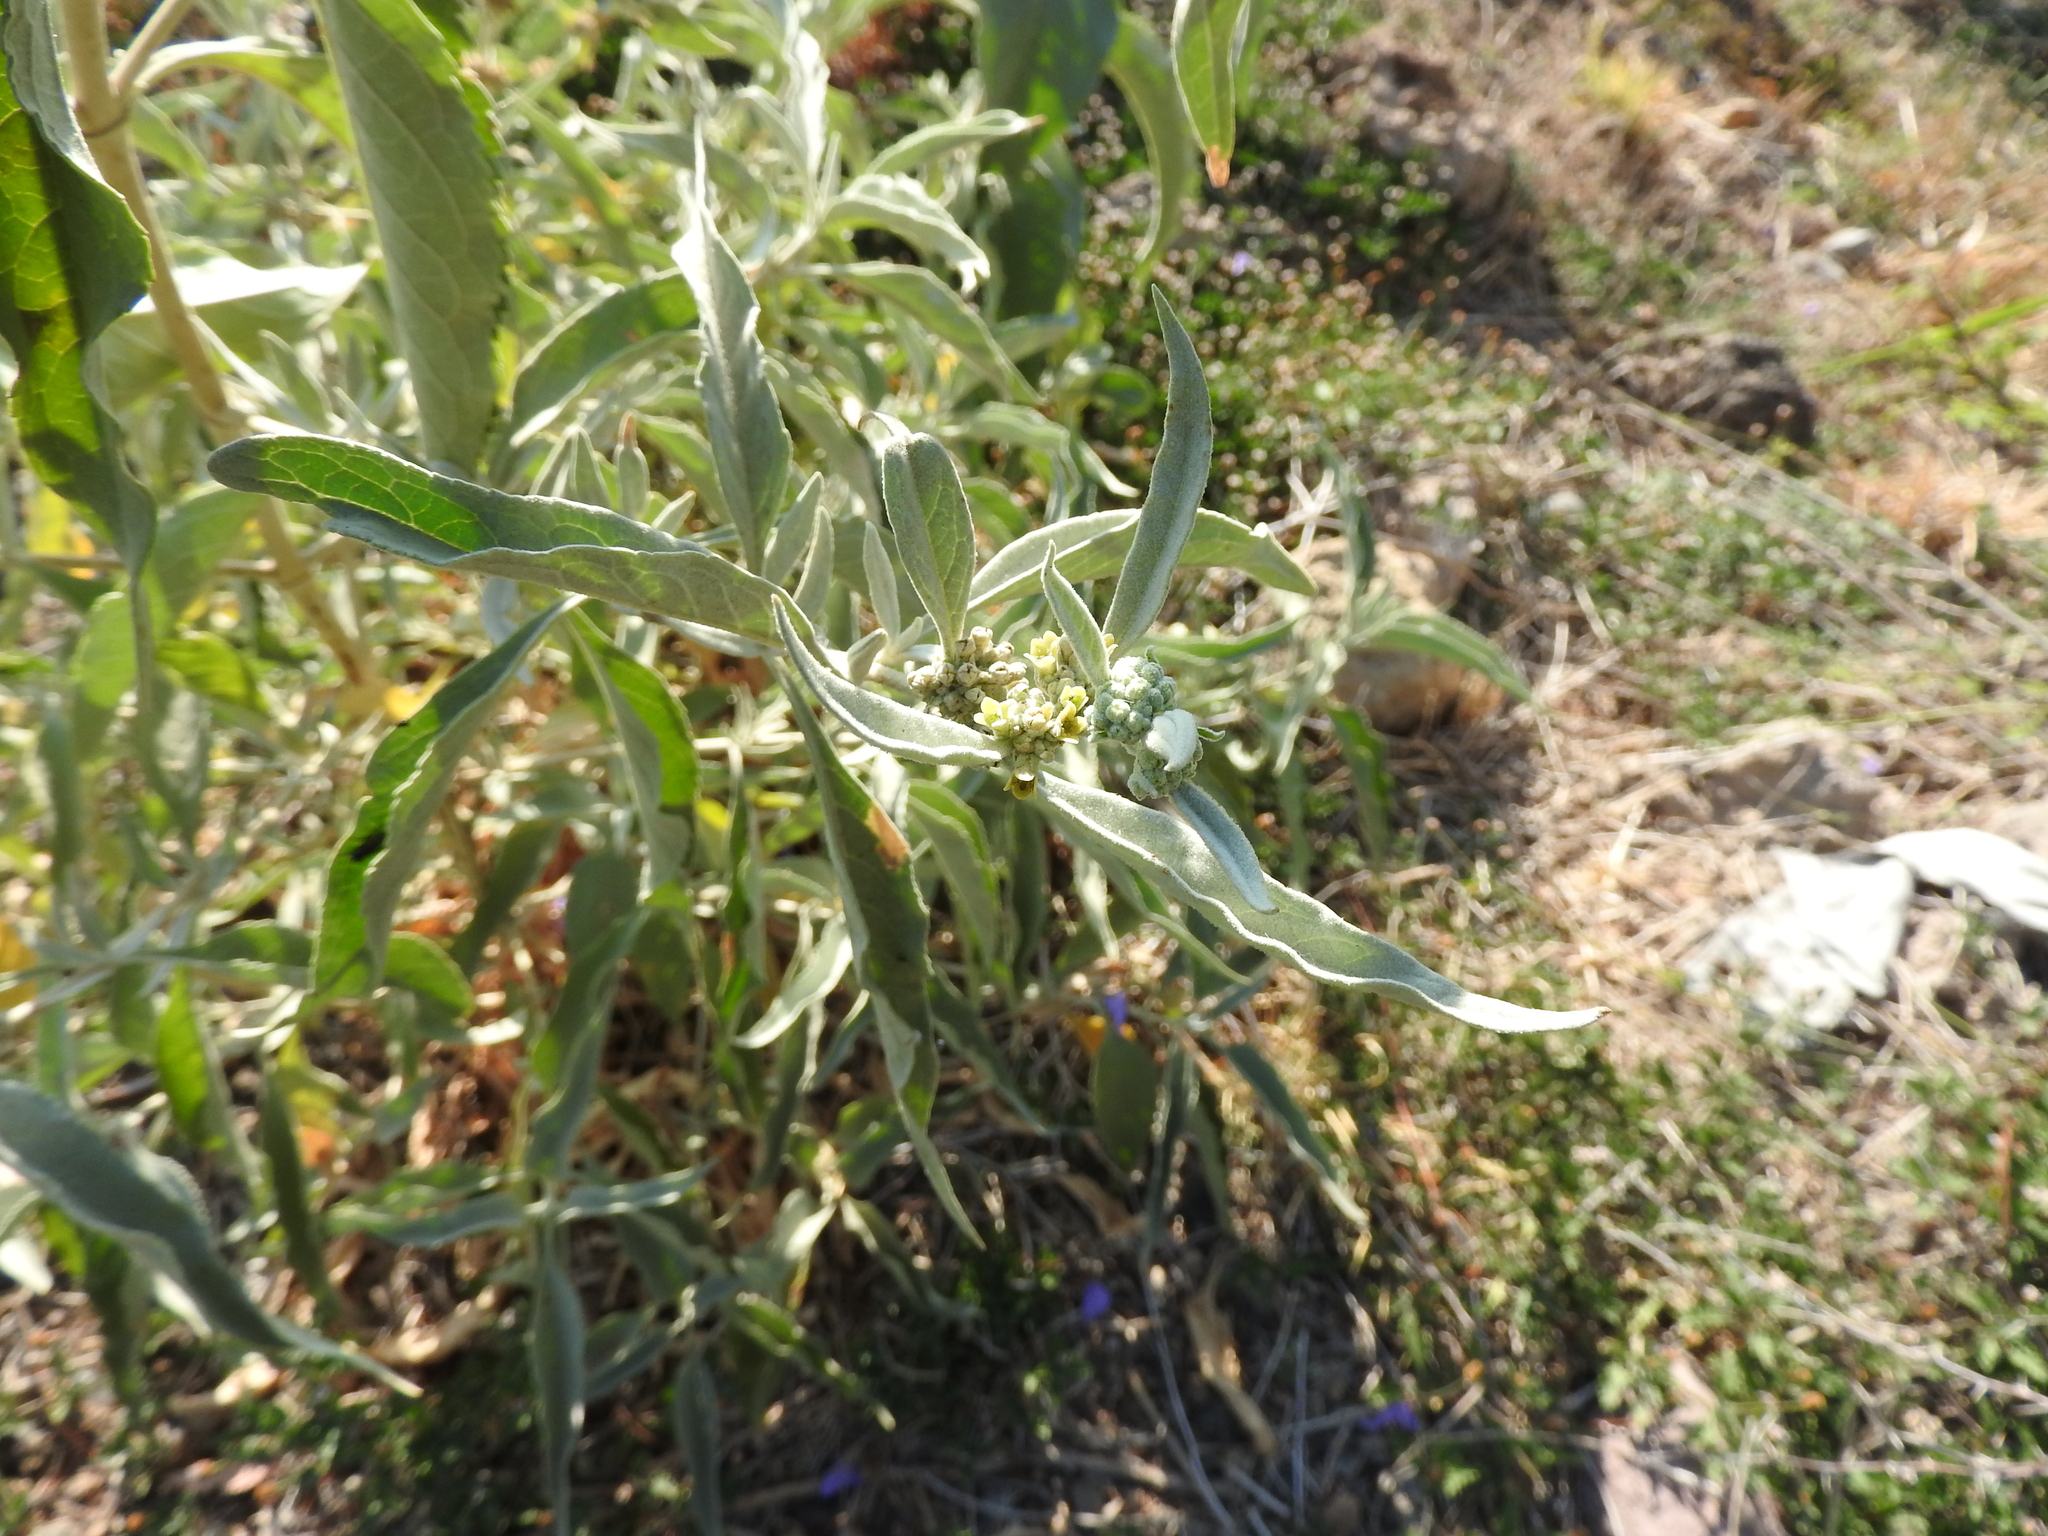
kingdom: Plantae
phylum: Tracheophyta
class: Magnoliopsida
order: Lamiales
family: Scrophulariaceae
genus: Buddleja
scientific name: Buddleja sessiliflora
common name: Rio grande butterfly-bush
